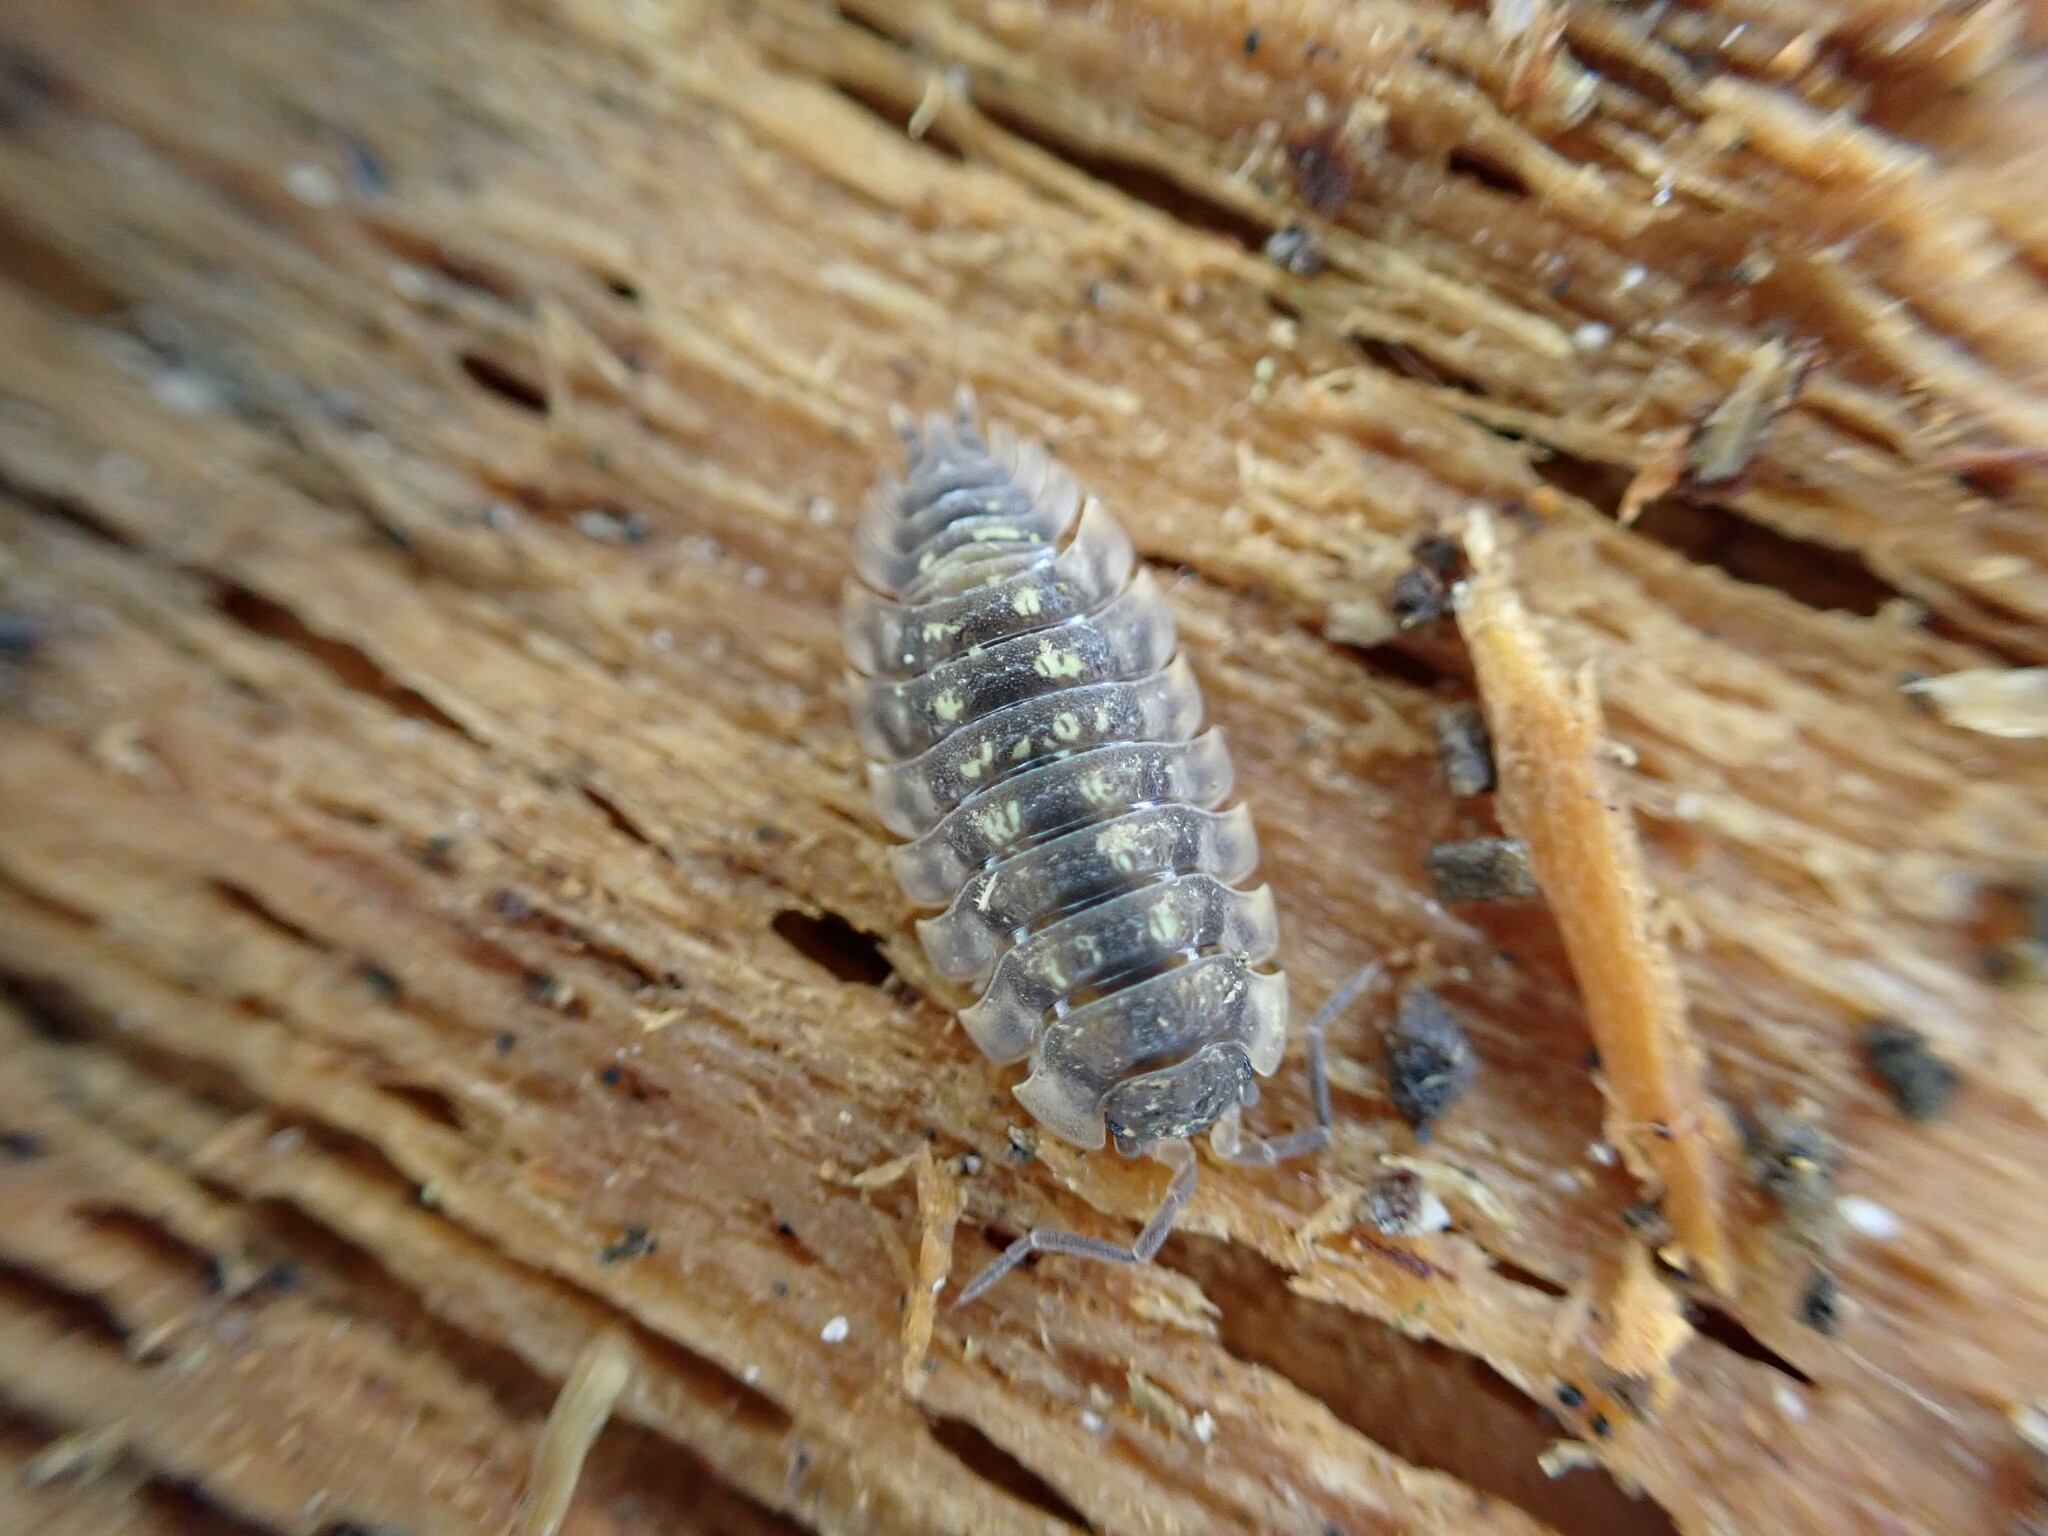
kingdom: Animalia
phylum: Arthropoda
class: Malacostraca
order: Isopoda
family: Oniscidae
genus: Oniscus
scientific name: Oniscus asellus
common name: Common shiny woodlouse
